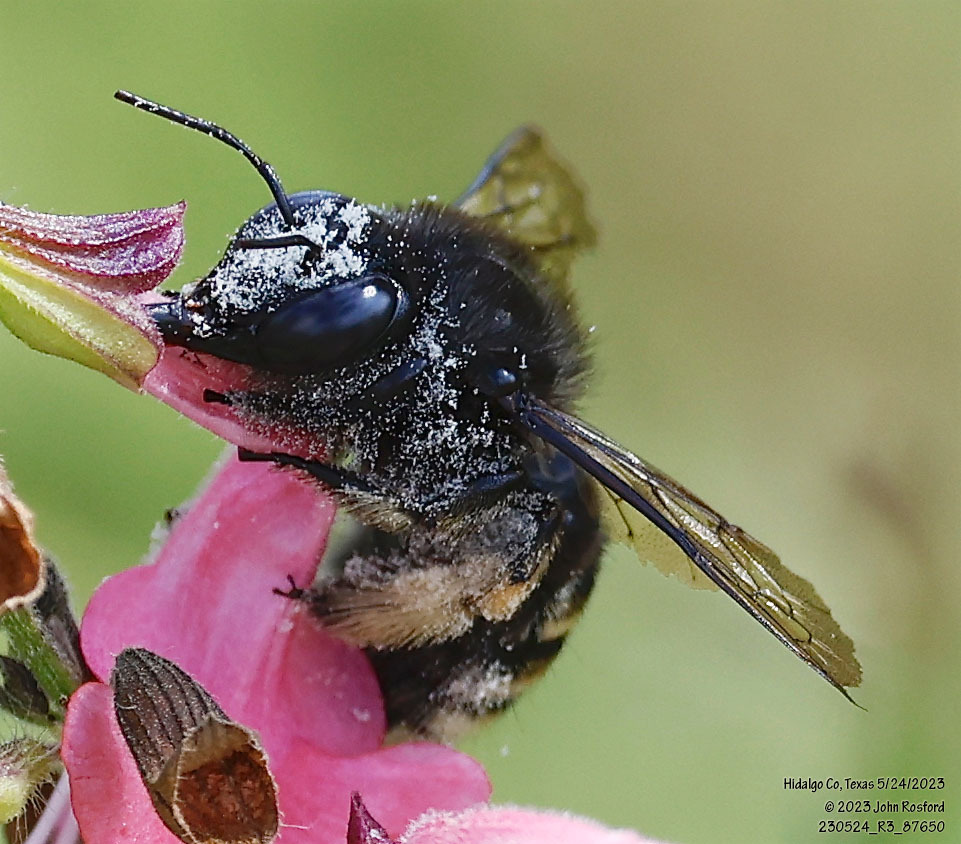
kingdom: Animalia
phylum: Arthropoda
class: Insecta
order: Hymenoptera
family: Apidae
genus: Xylocopa
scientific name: Xylocopa tabaniformis
